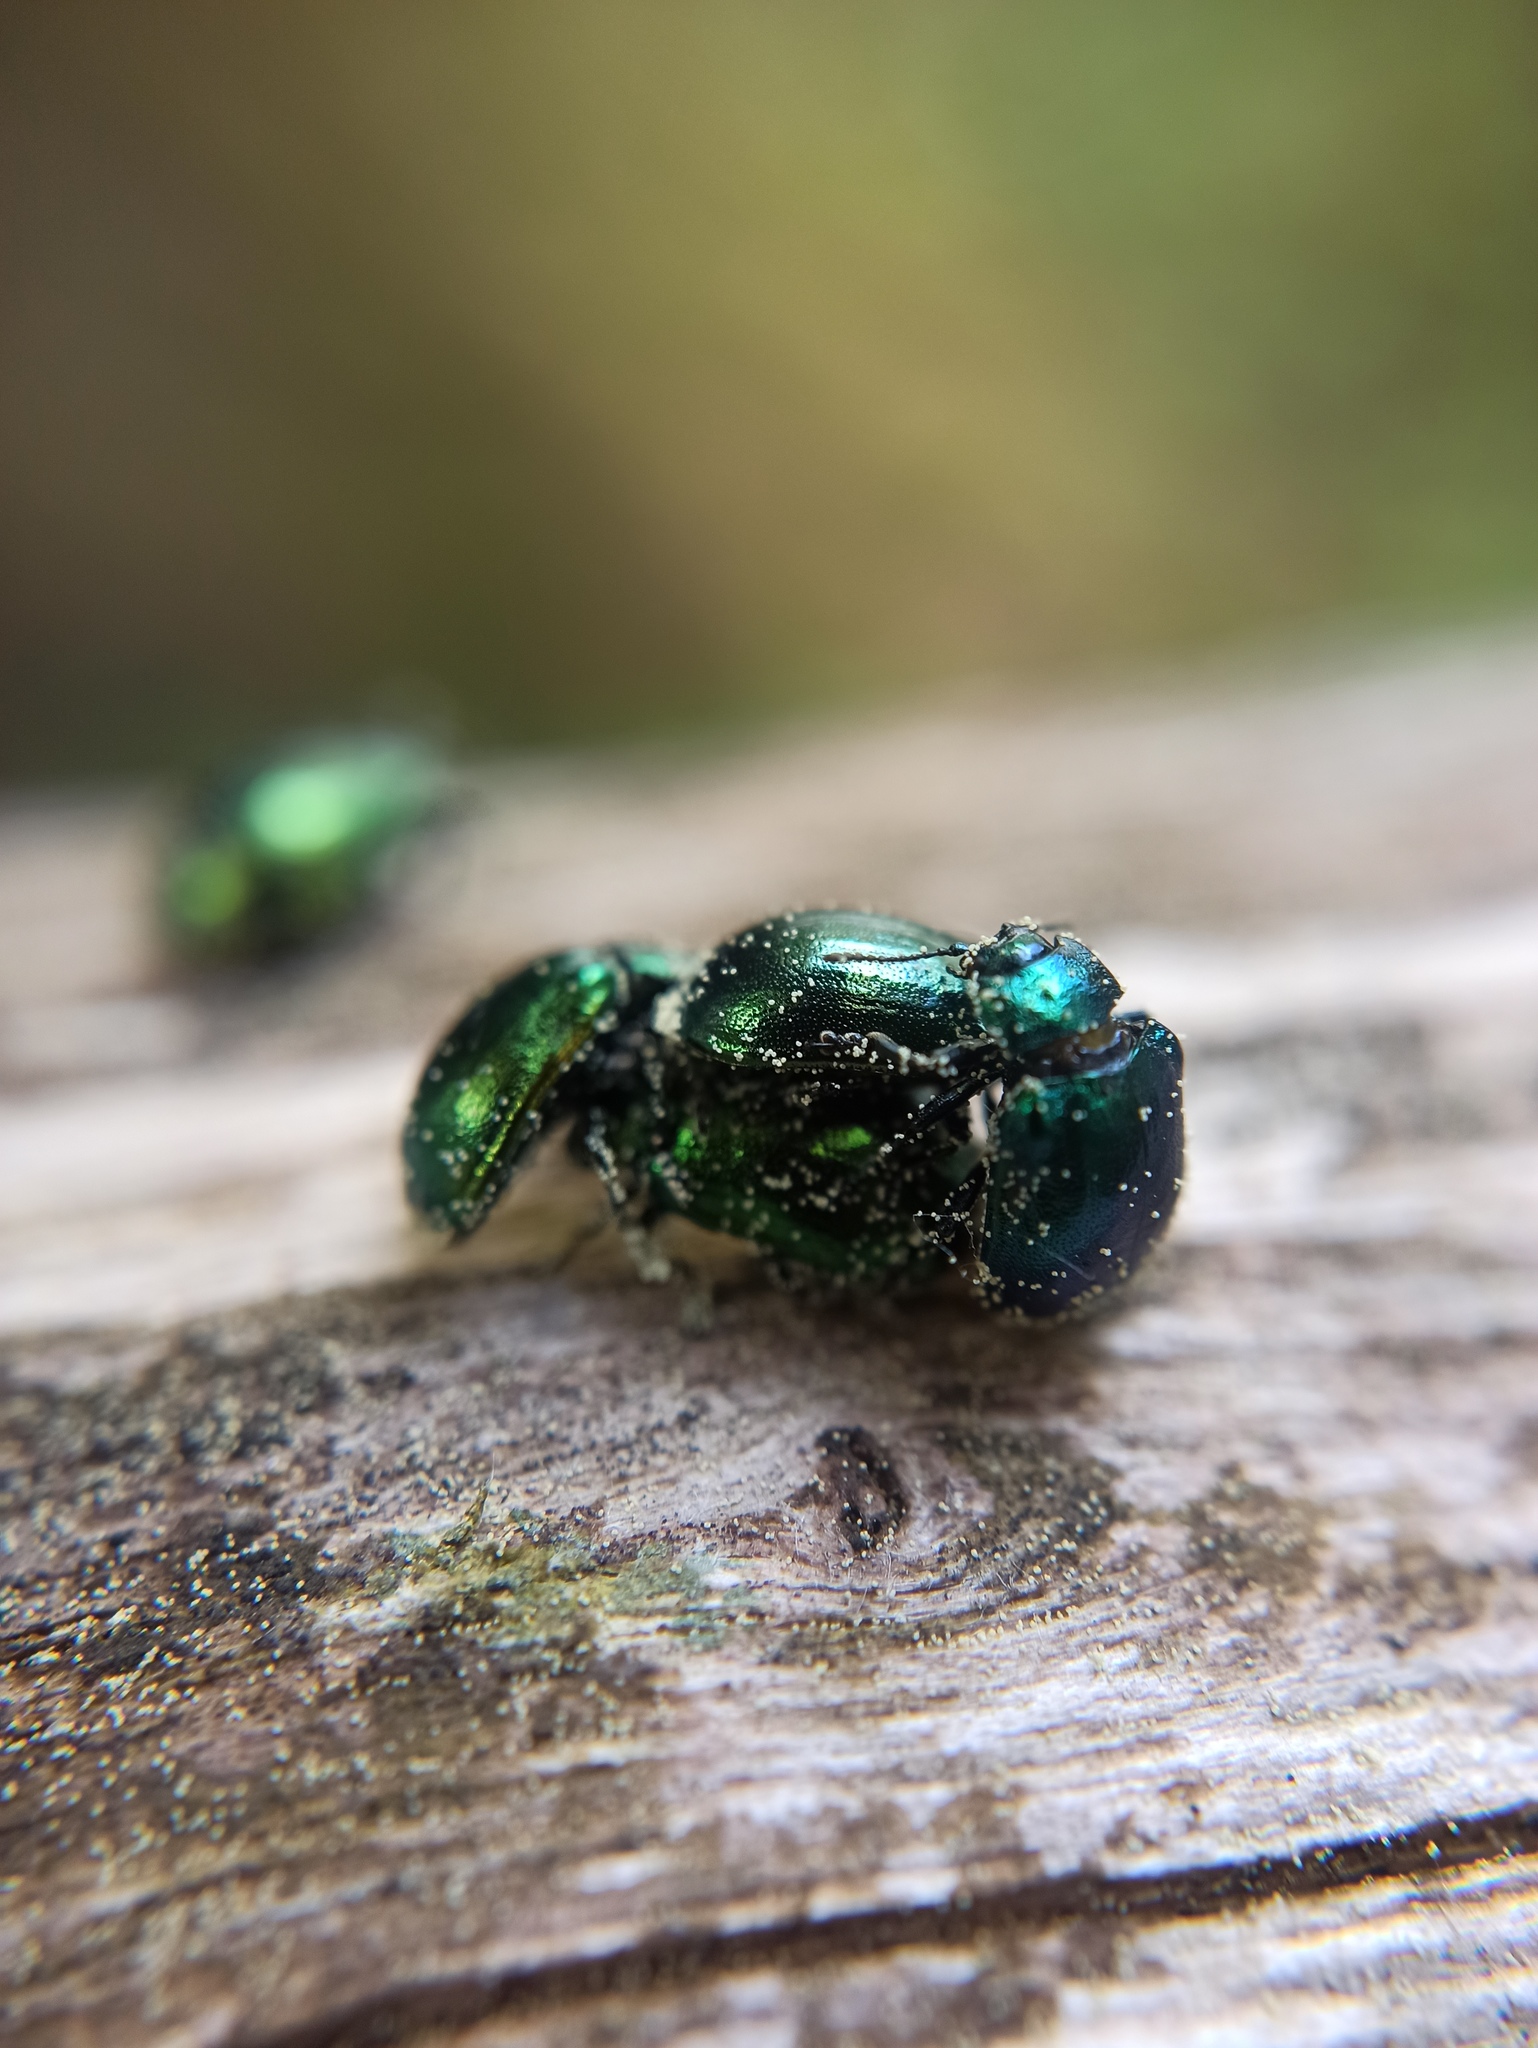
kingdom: Animalia
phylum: Arthropoda
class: Insecta
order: Coleoptera
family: Chrysomelidae
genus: Plagiosterna
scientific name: Plagiosterna aenea
